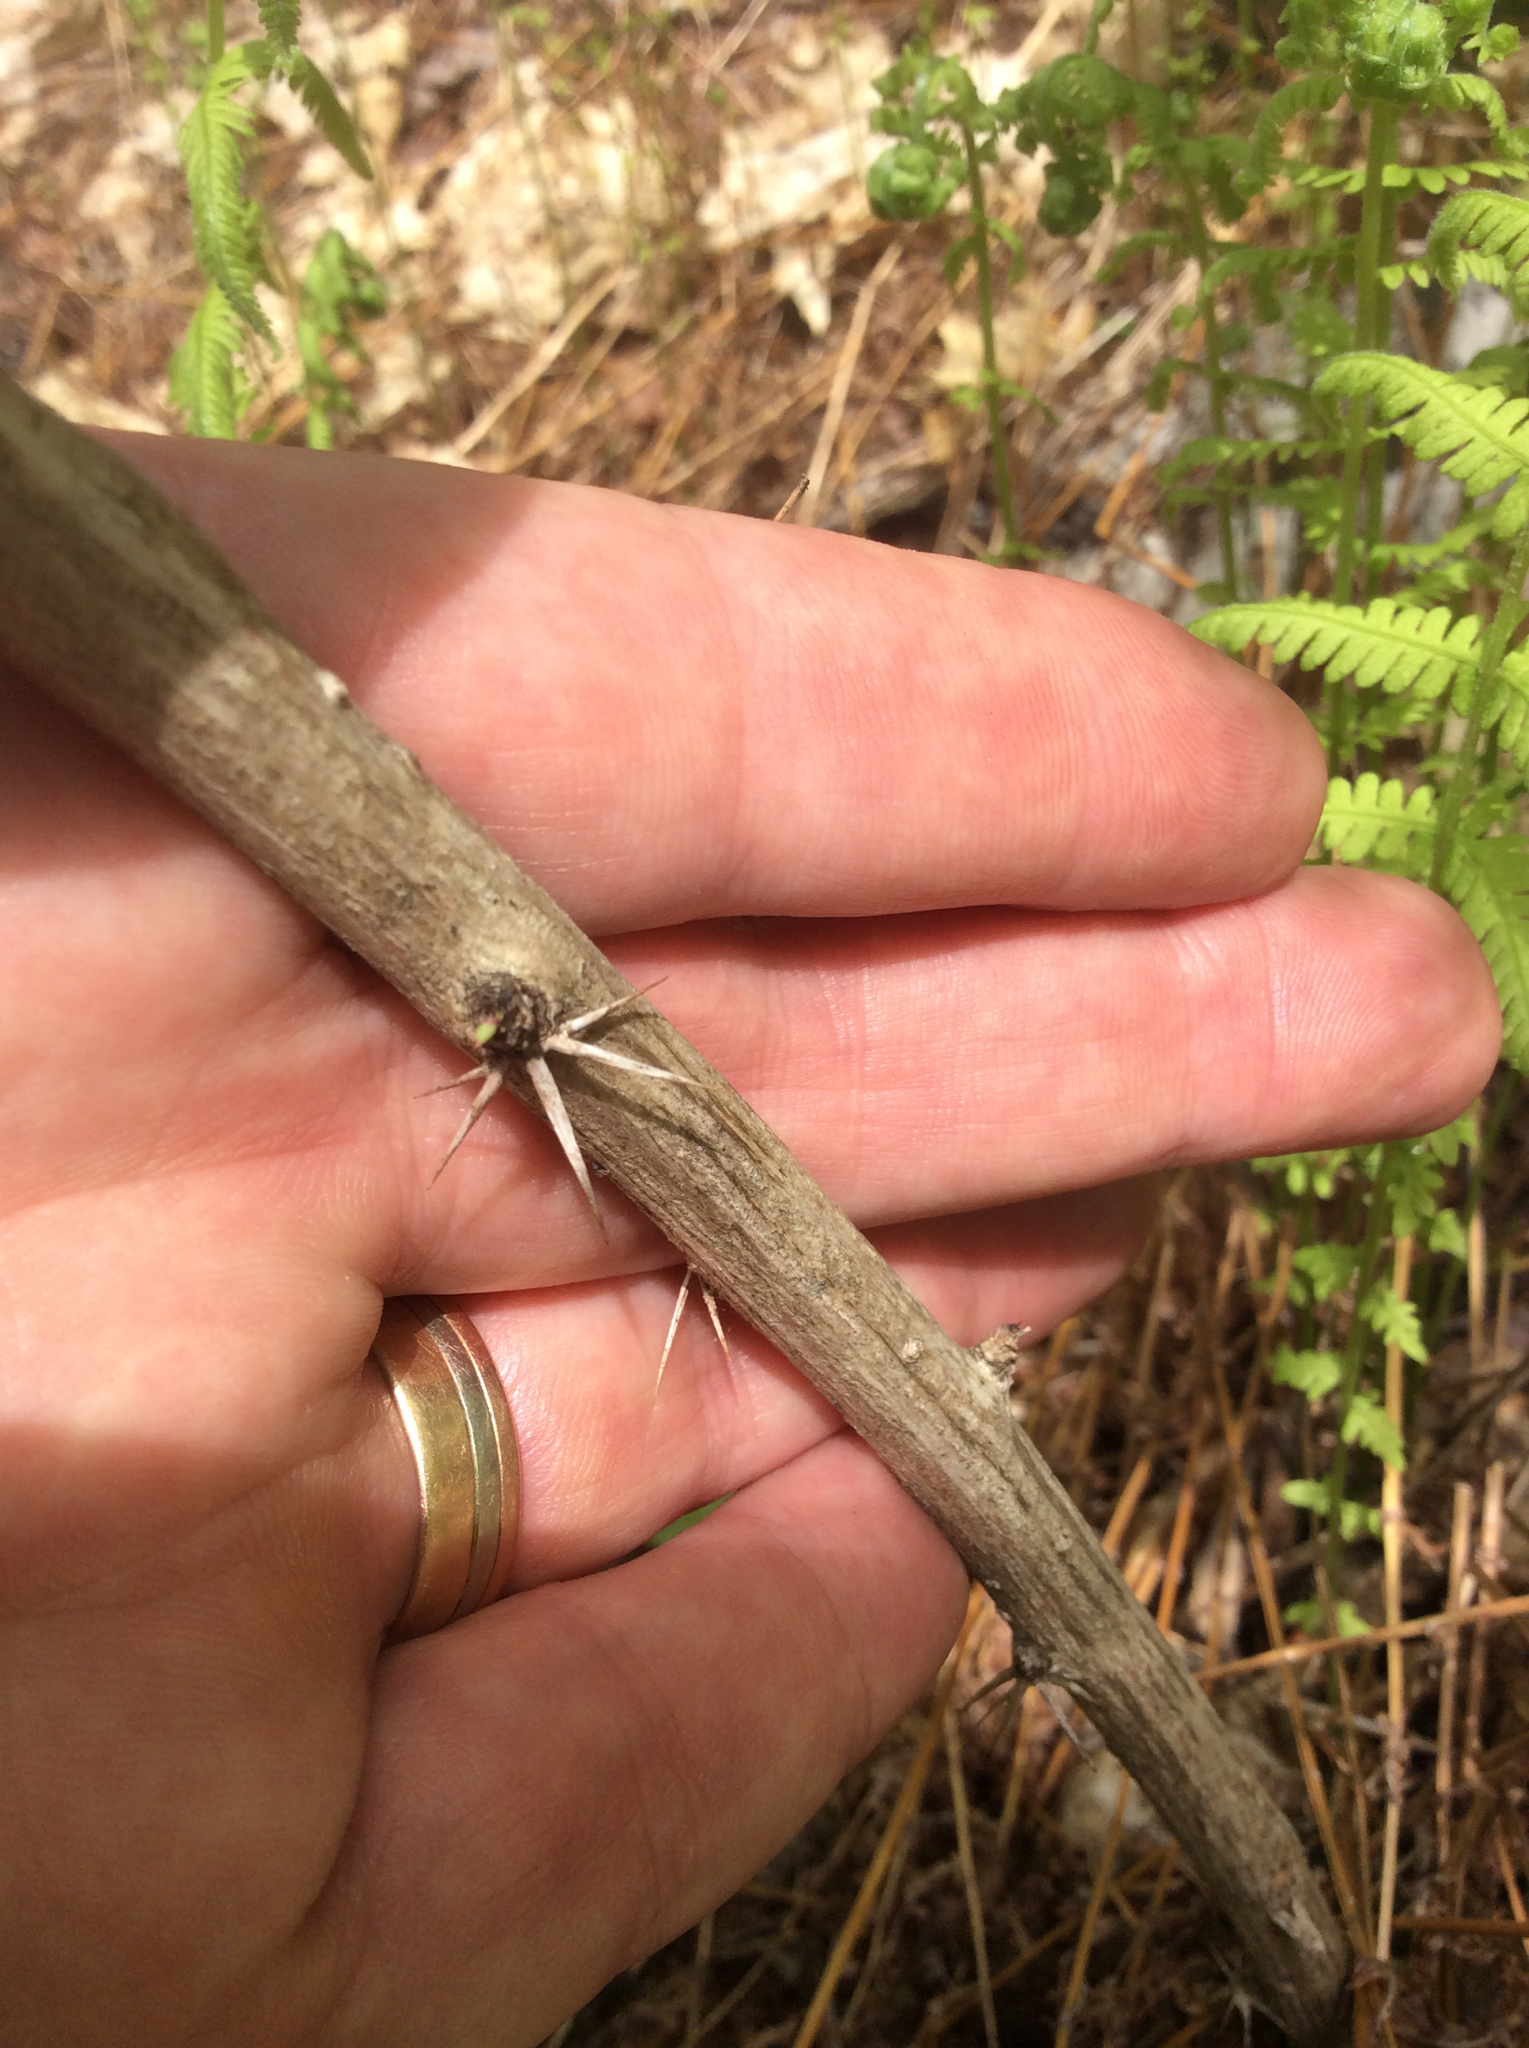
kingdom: Plantae
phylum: Tracheophyta
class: Magnoliopsida
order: Ranunculales
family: Berberidaceae
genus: Berberis
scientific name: Berberis vulgaris
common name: Barberry
